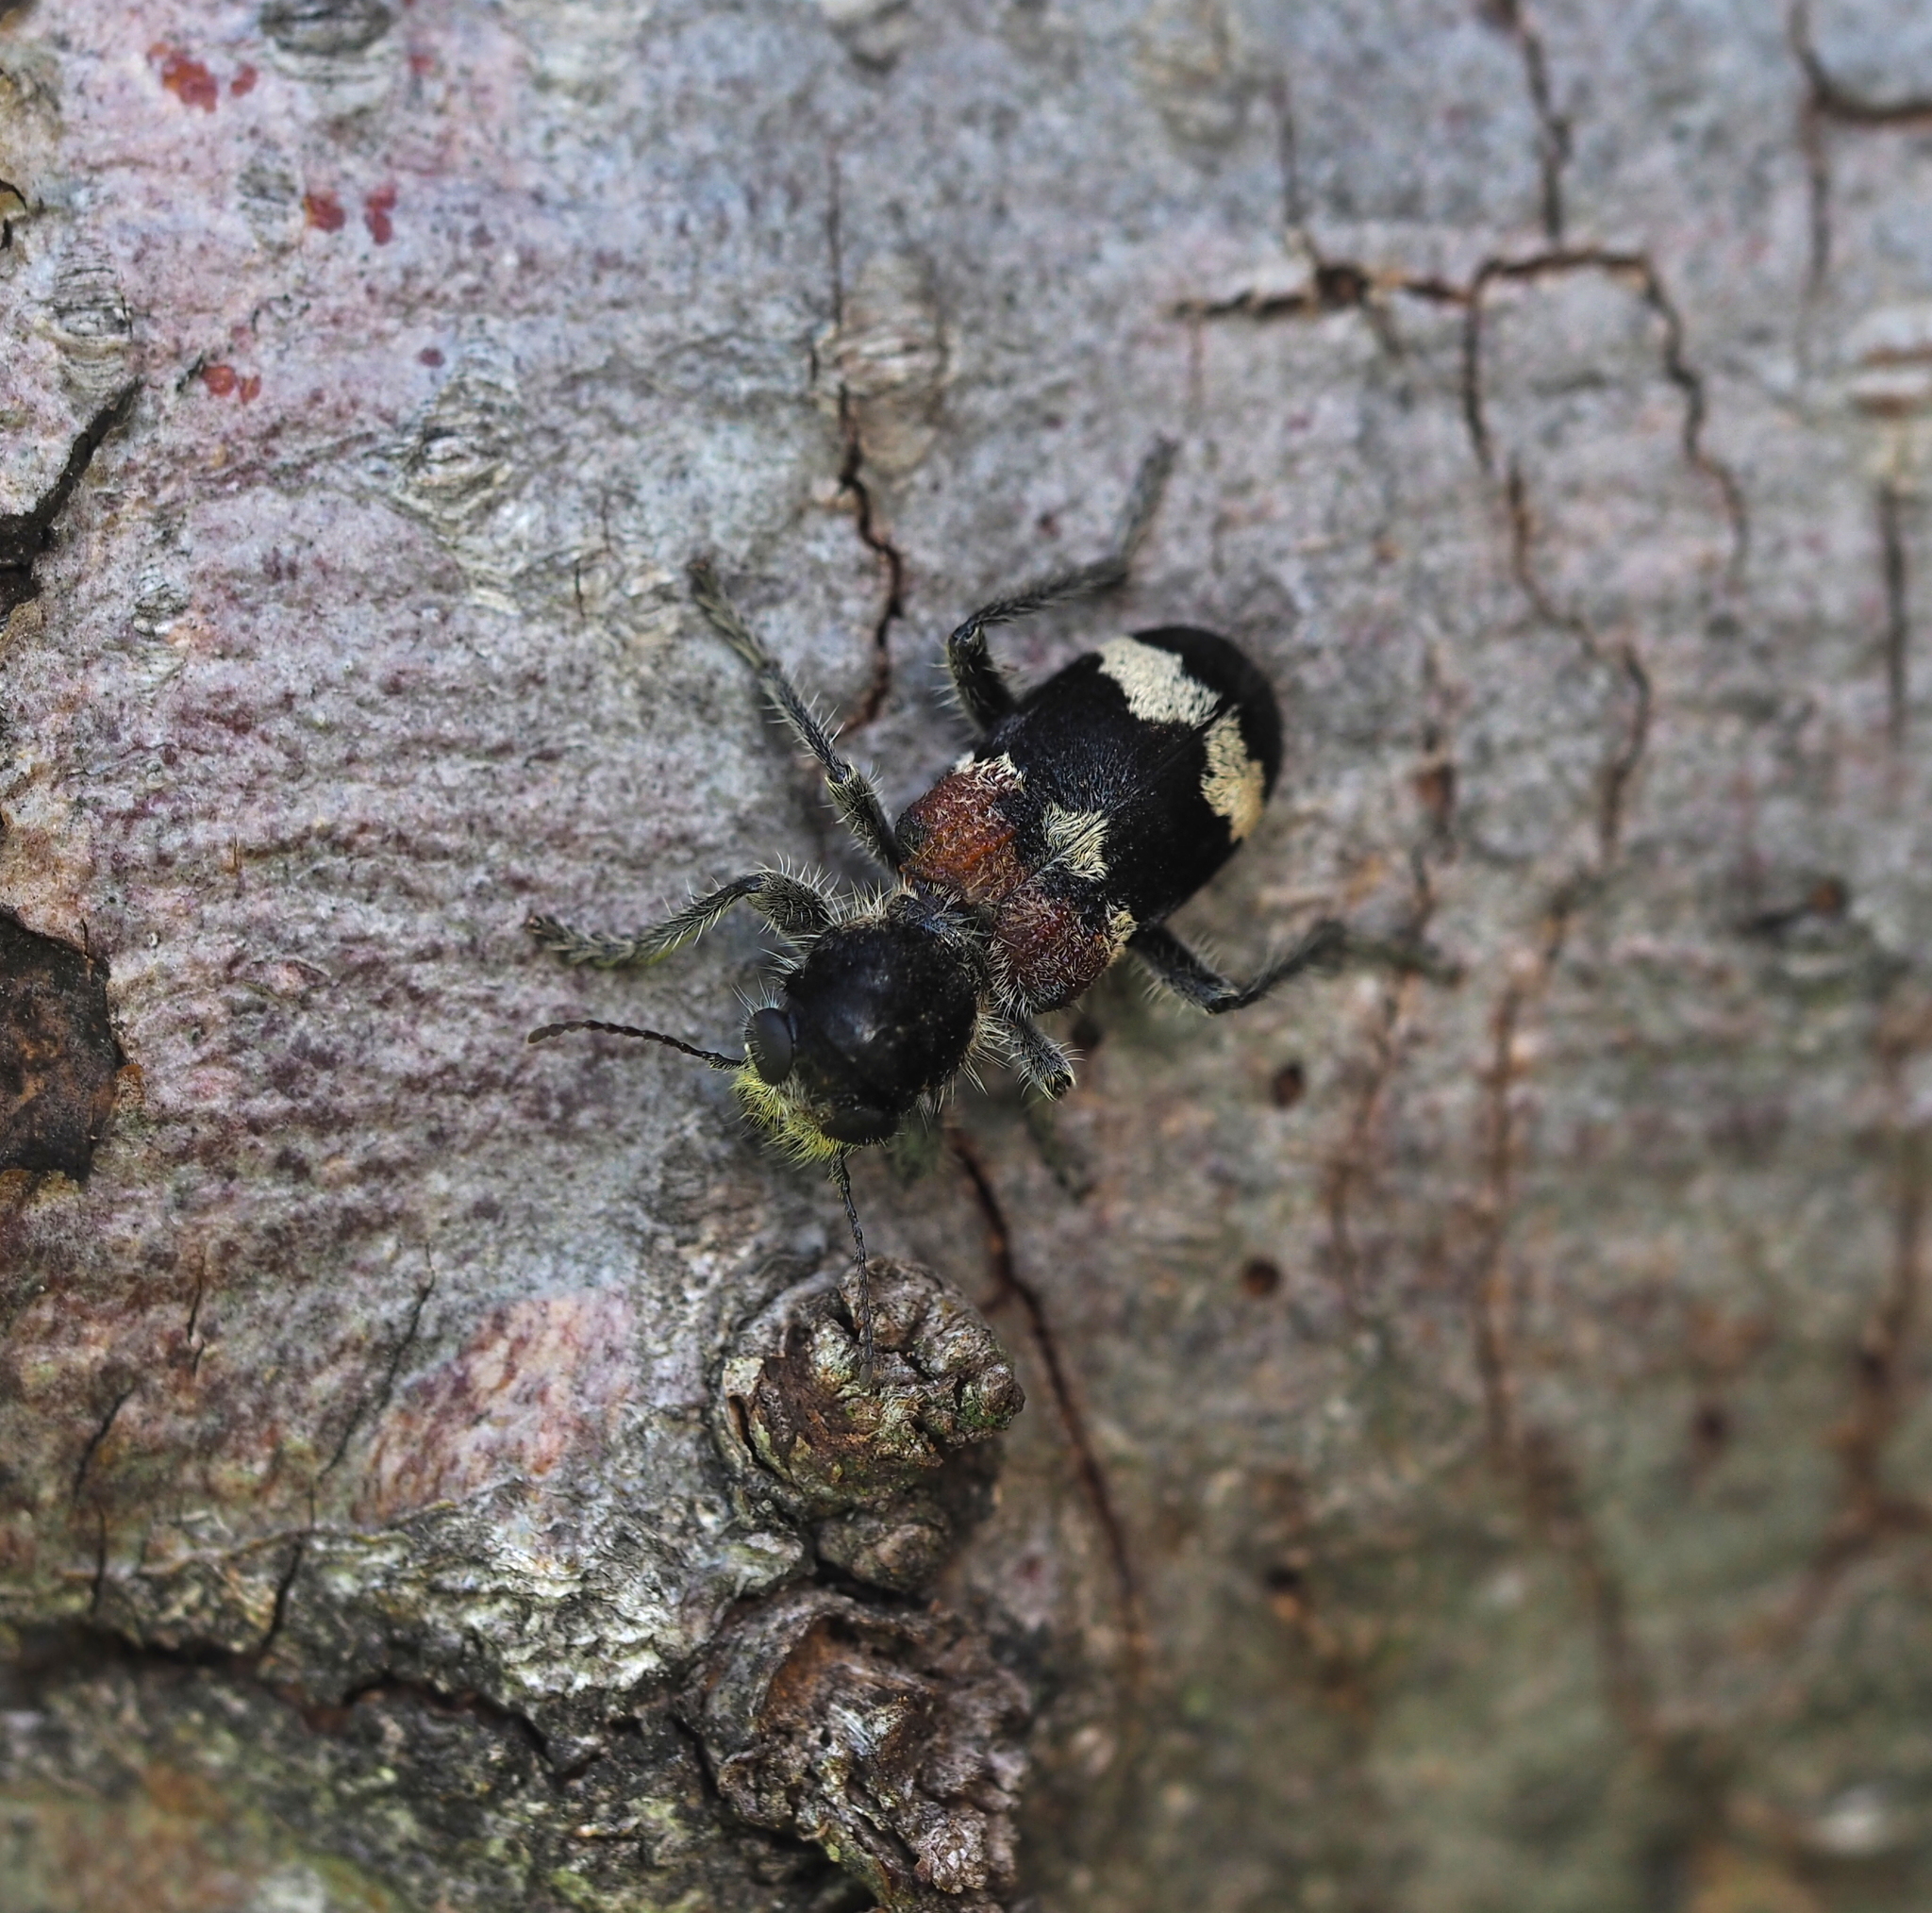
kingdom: Animalia
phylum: Arthropoda
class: Insecta
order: Coleoptera
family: Cleridae
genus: Clerus
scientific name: Clerus mutillarius
